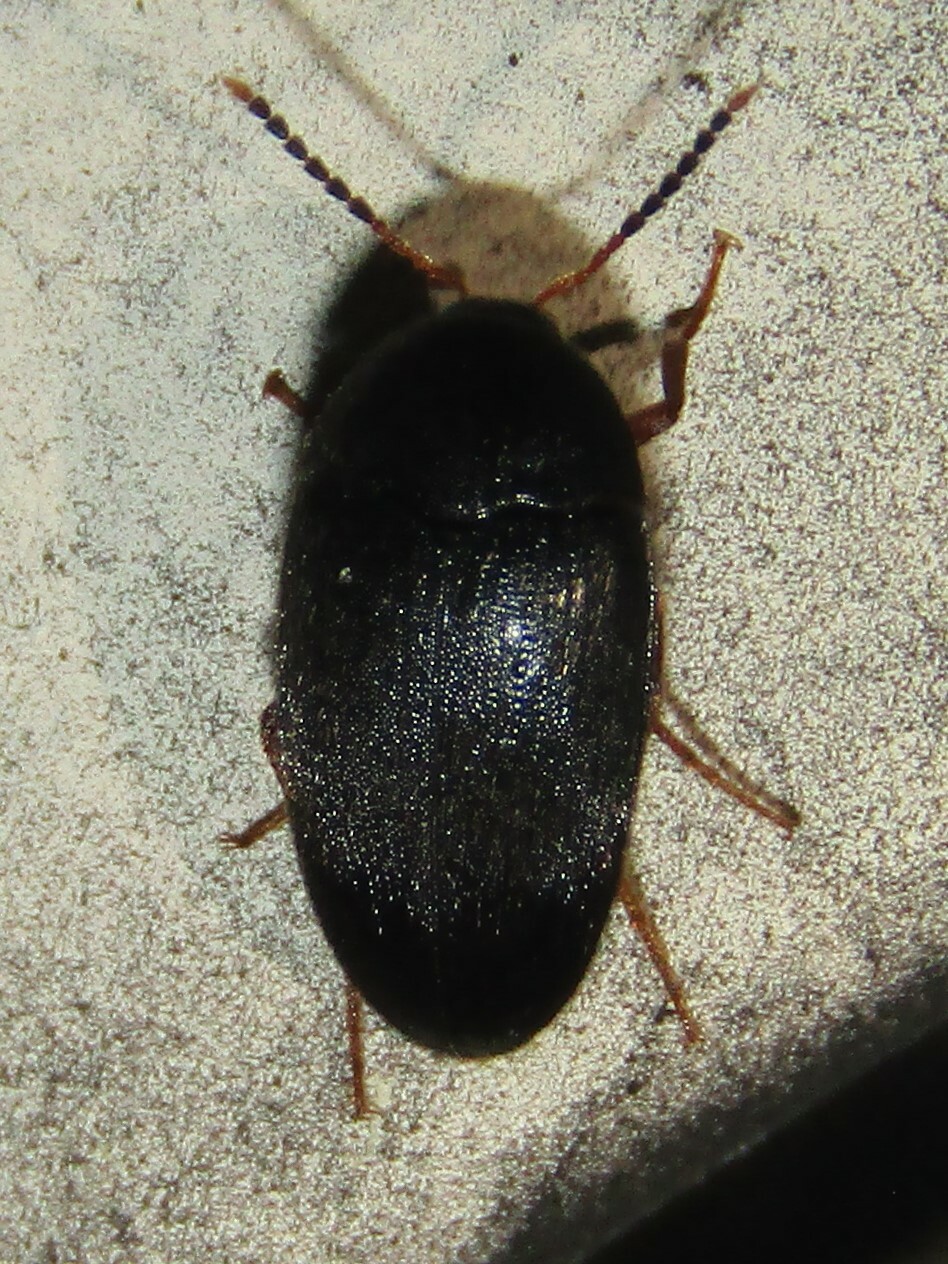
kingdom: Animalia
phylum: Arthropoda
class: Insecta
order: Coleoptera
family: Tetratomidae
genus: Eustrophopsis
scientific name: Eustrophopsis bicolor
